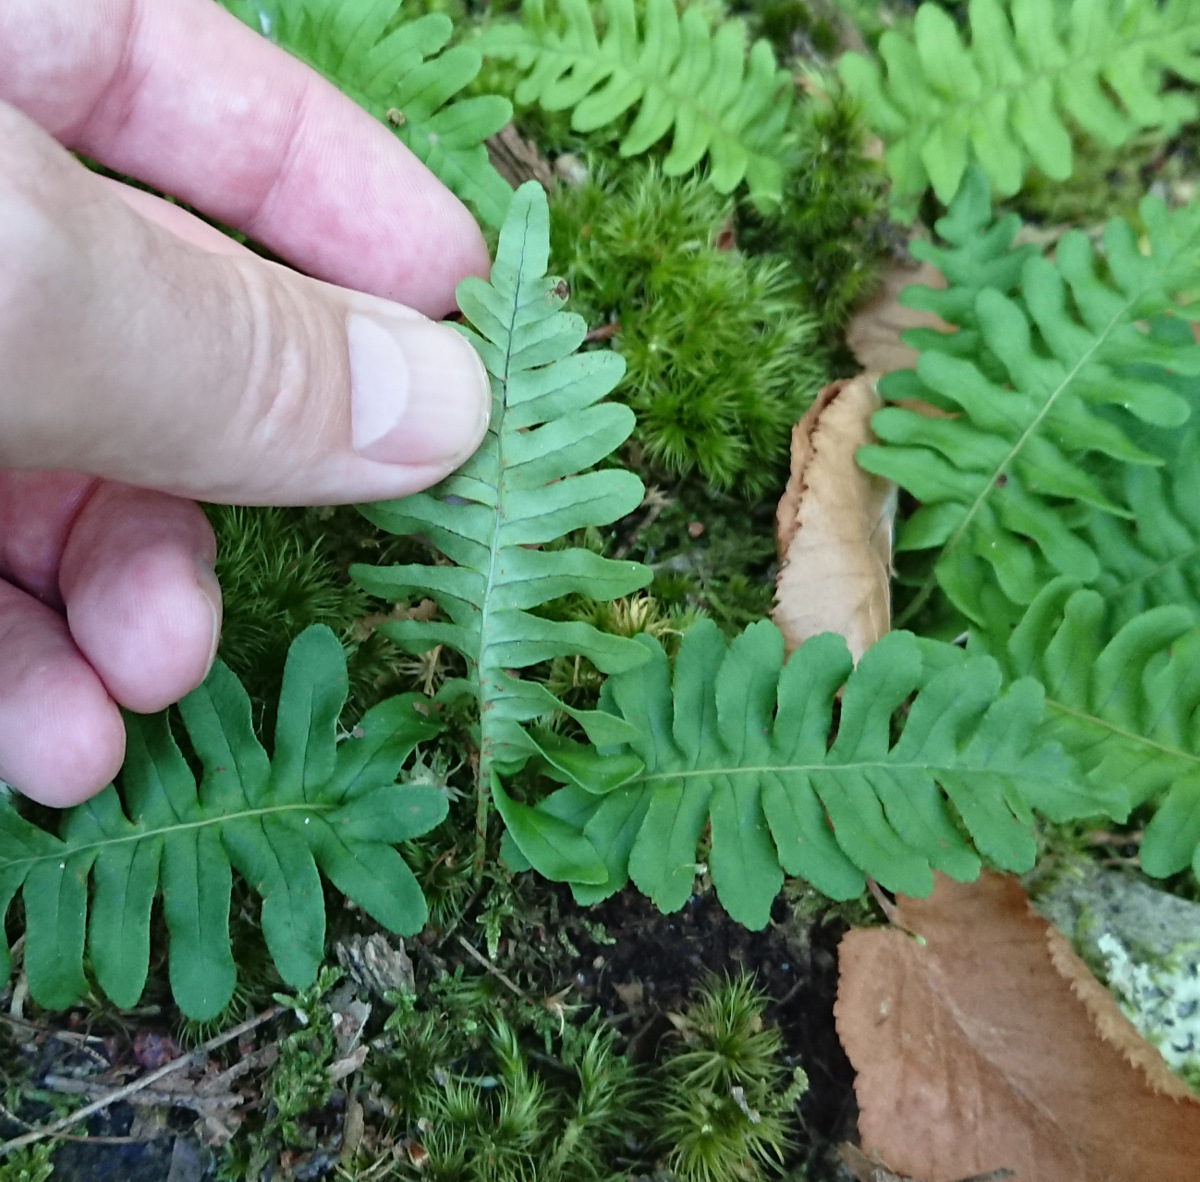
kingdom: Plantae
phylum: Tracheophyta
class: Polypodiopsida
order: Polypodiales
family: Polypodiaceae
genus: Polypodium
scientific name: Polypodium virginianum
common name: American wall fern
